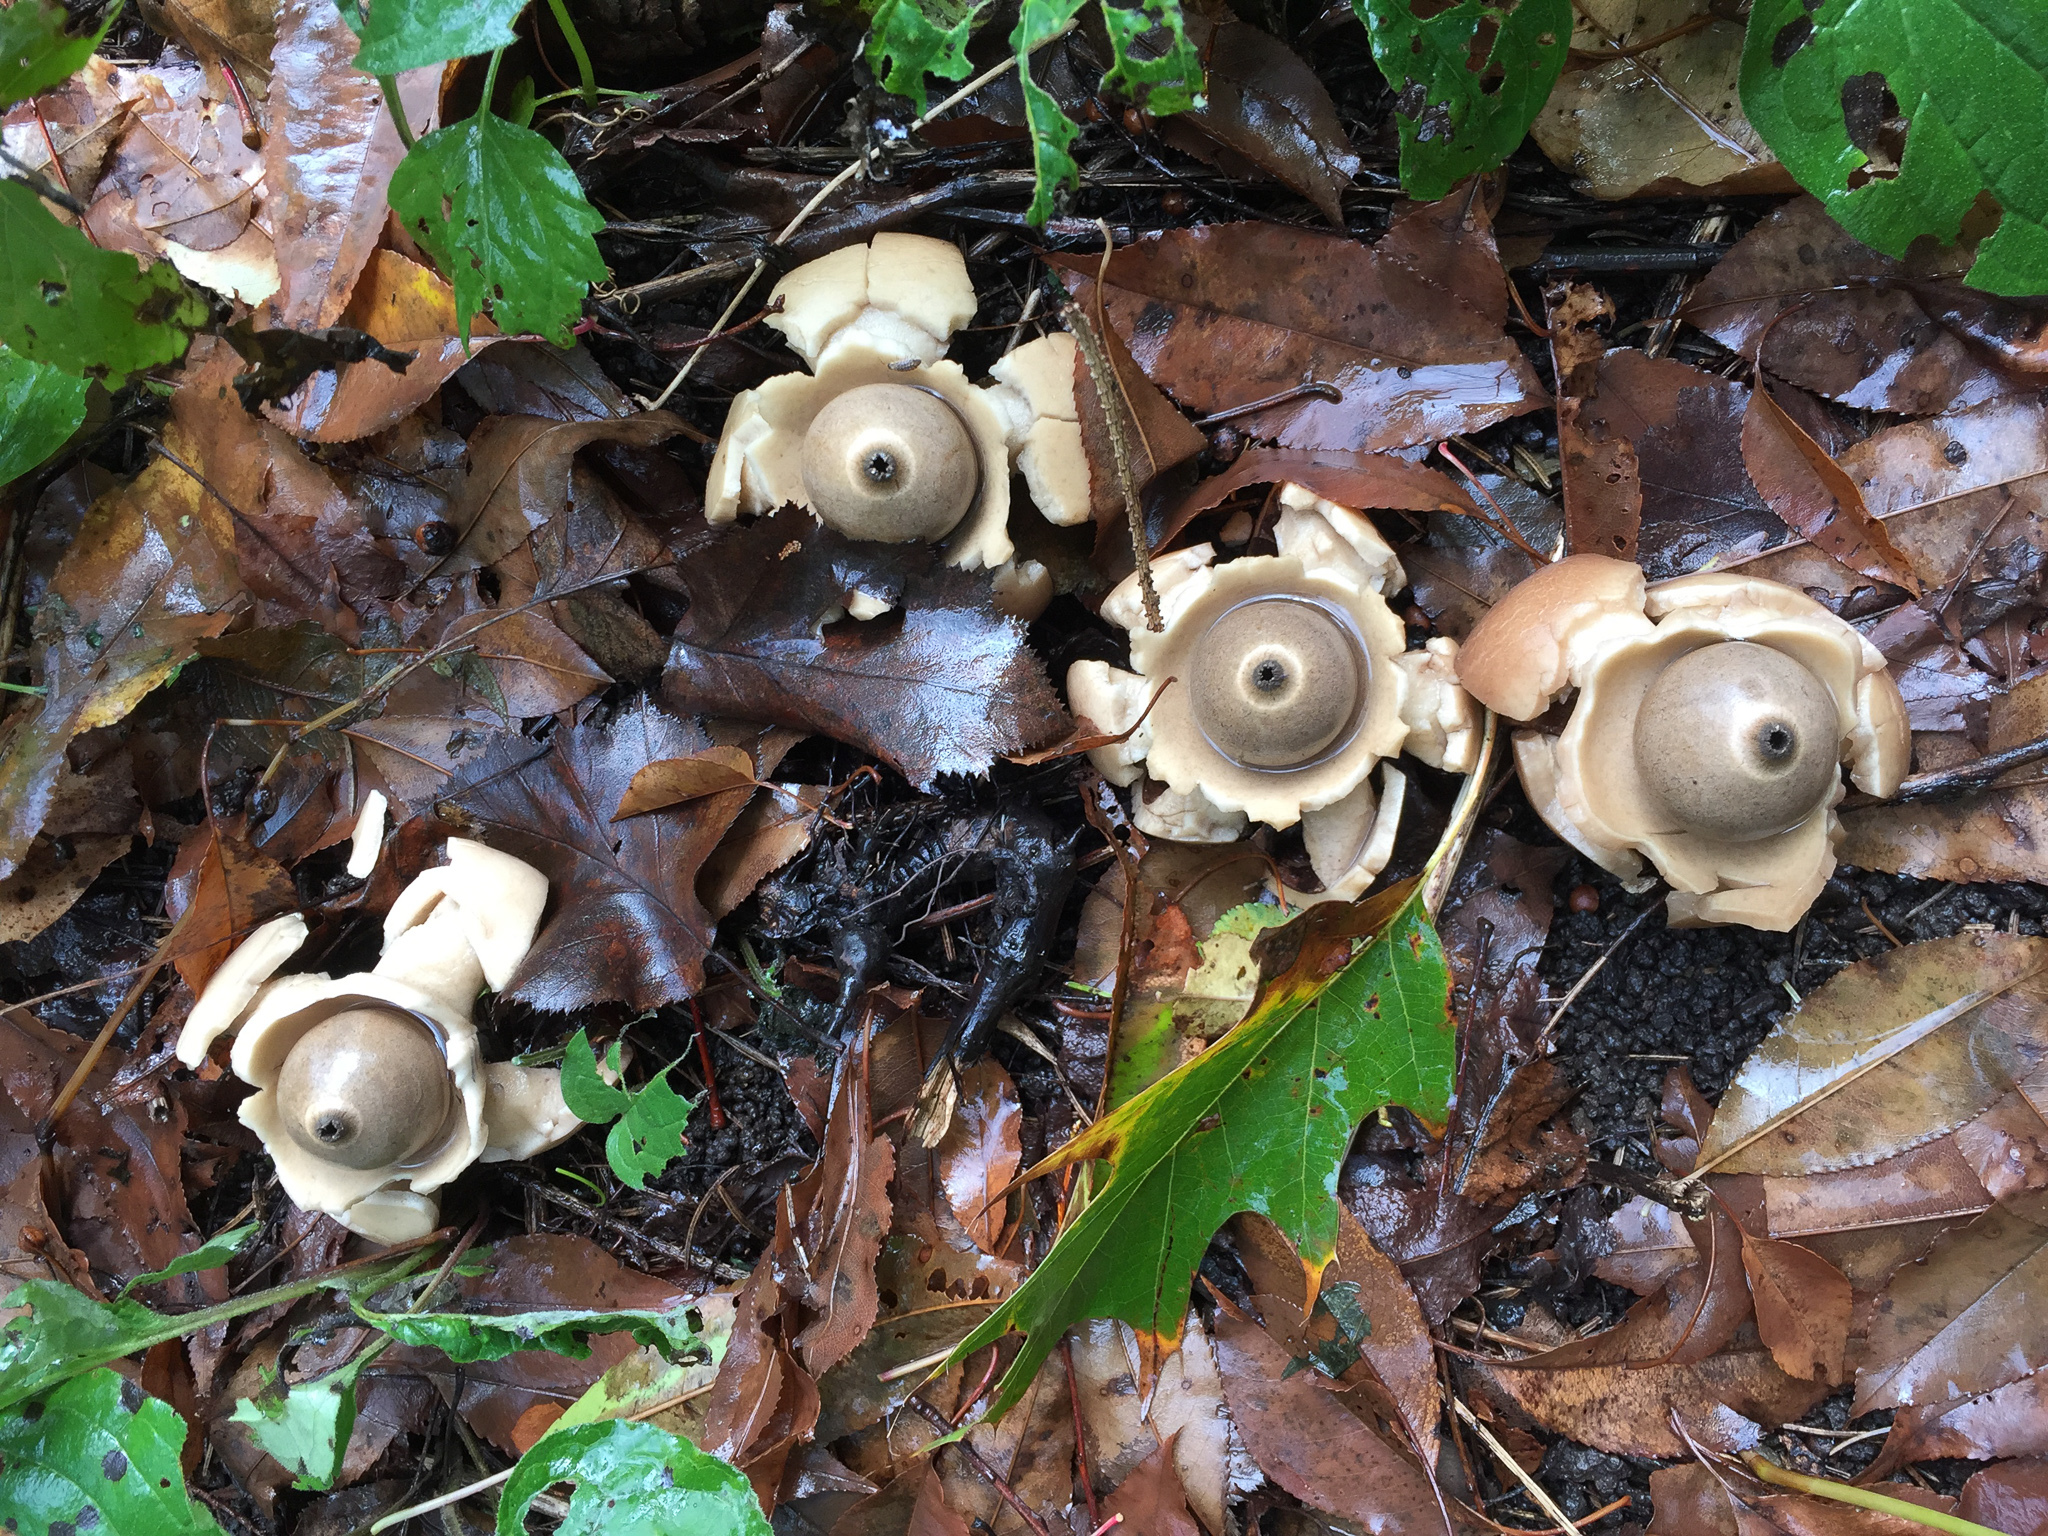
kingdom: Fungi
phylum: Basidiomycota
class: Agaricomycetes
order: Geastrales
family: Geastraceae
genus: Geastrum
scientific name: Geastrum triplex
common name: Collared earthstar
